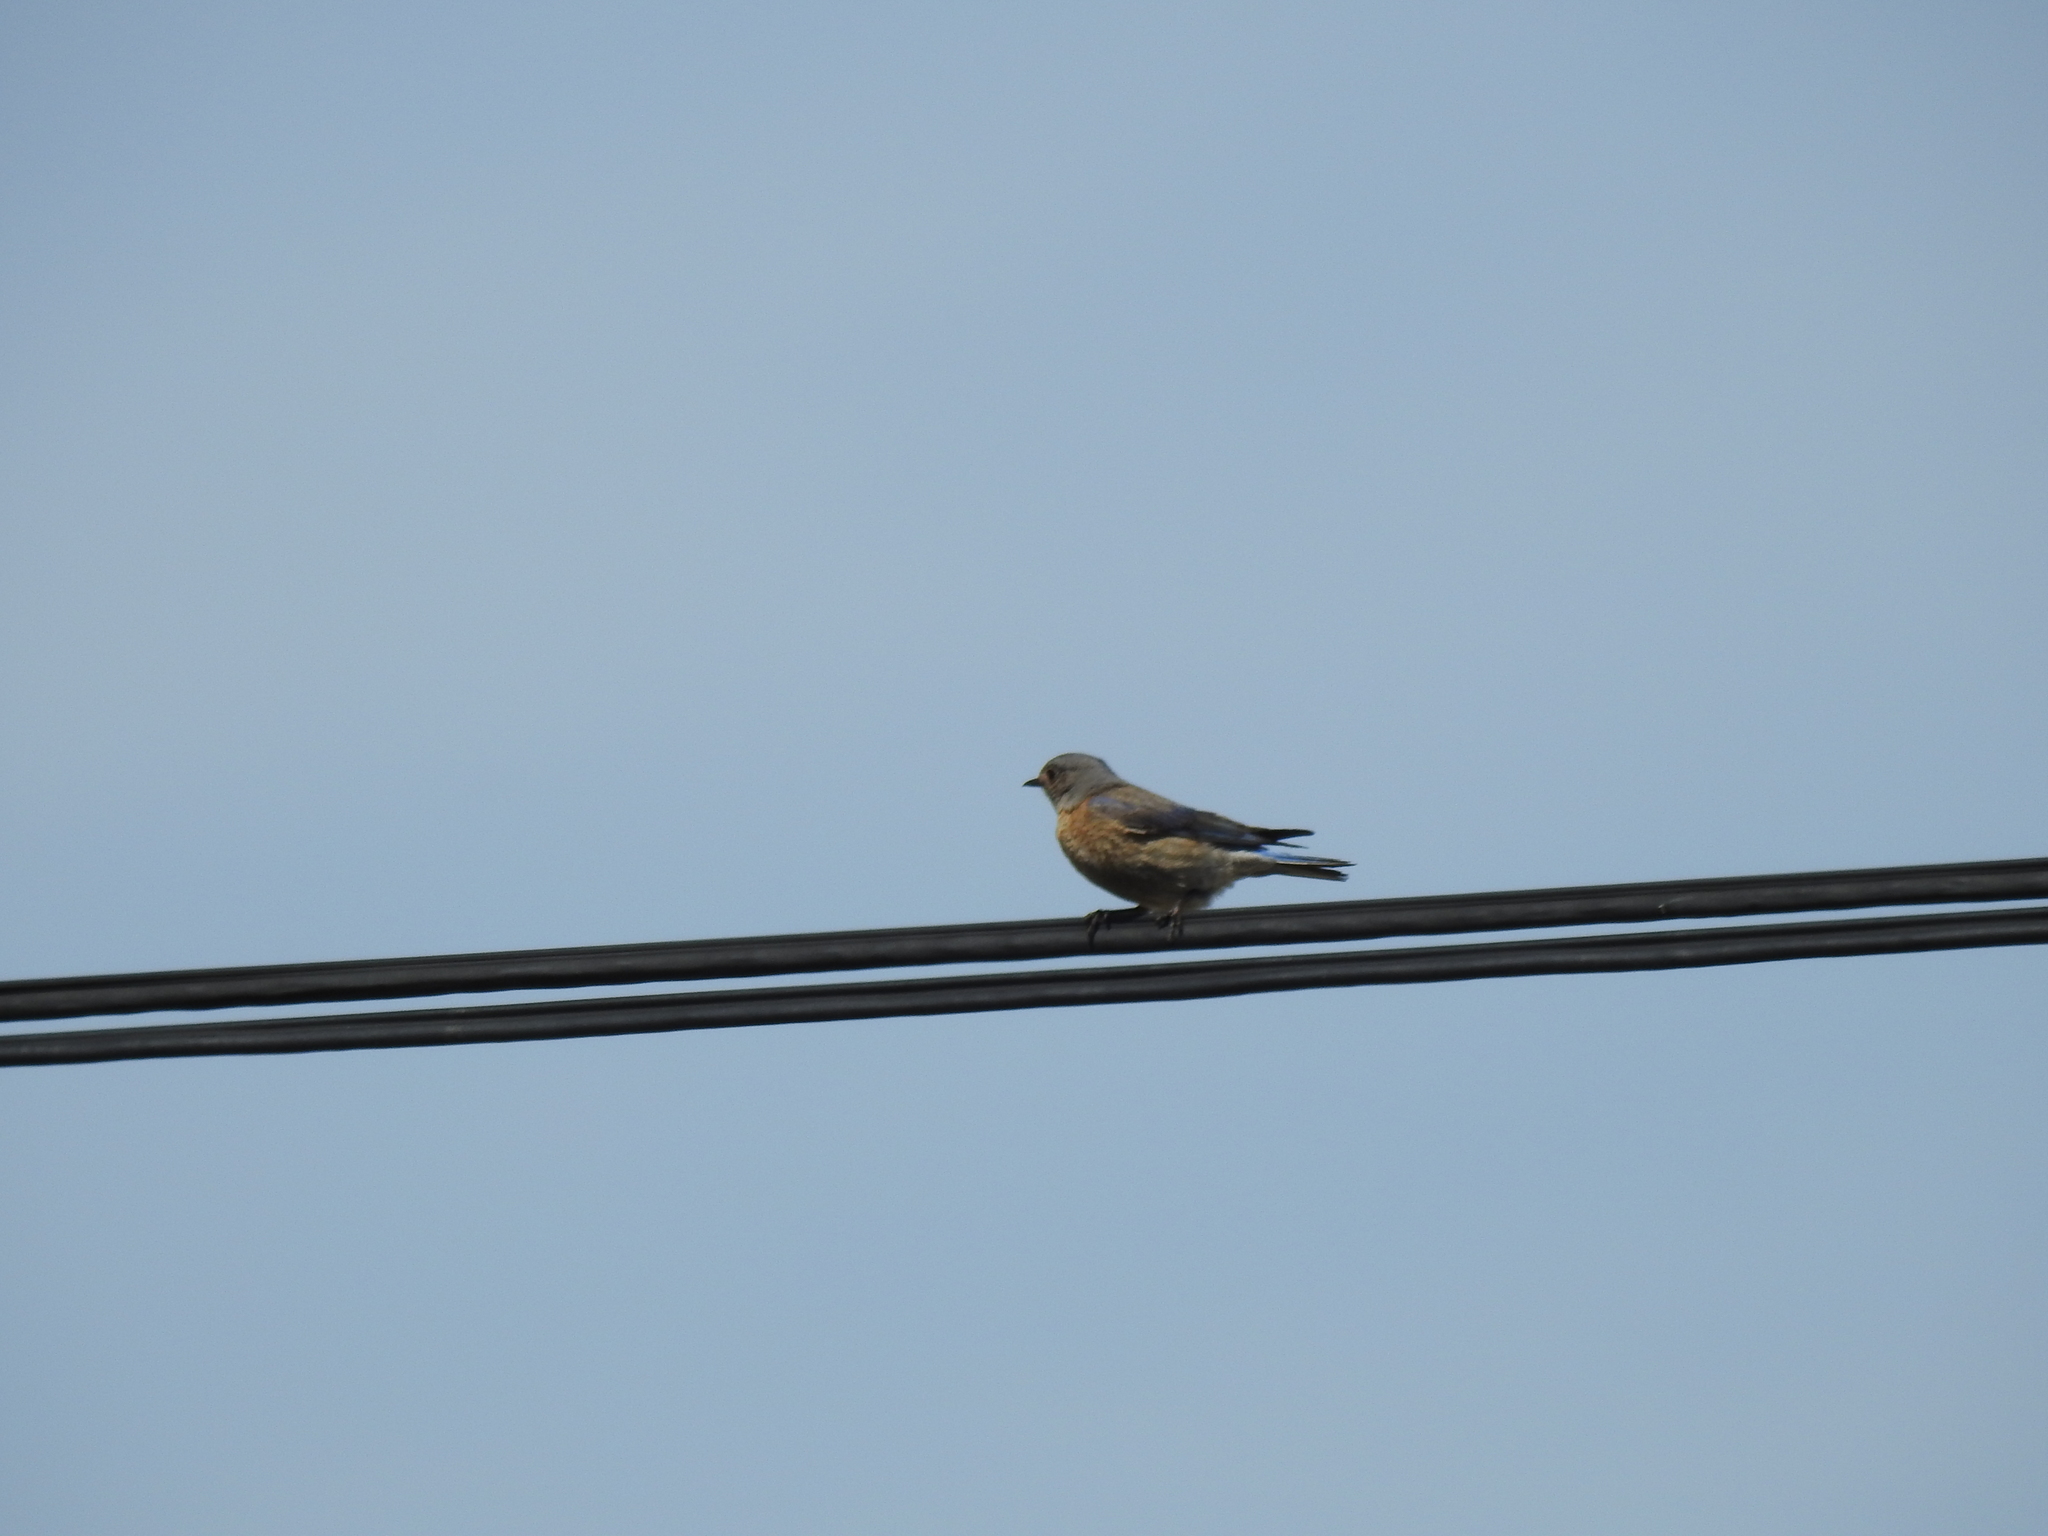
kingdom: Animalia
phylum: Chordata
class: Aves
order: Passeriformes
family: Turdidae
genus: Sialia
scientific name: Sialia mexicana
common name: Western bluebird
